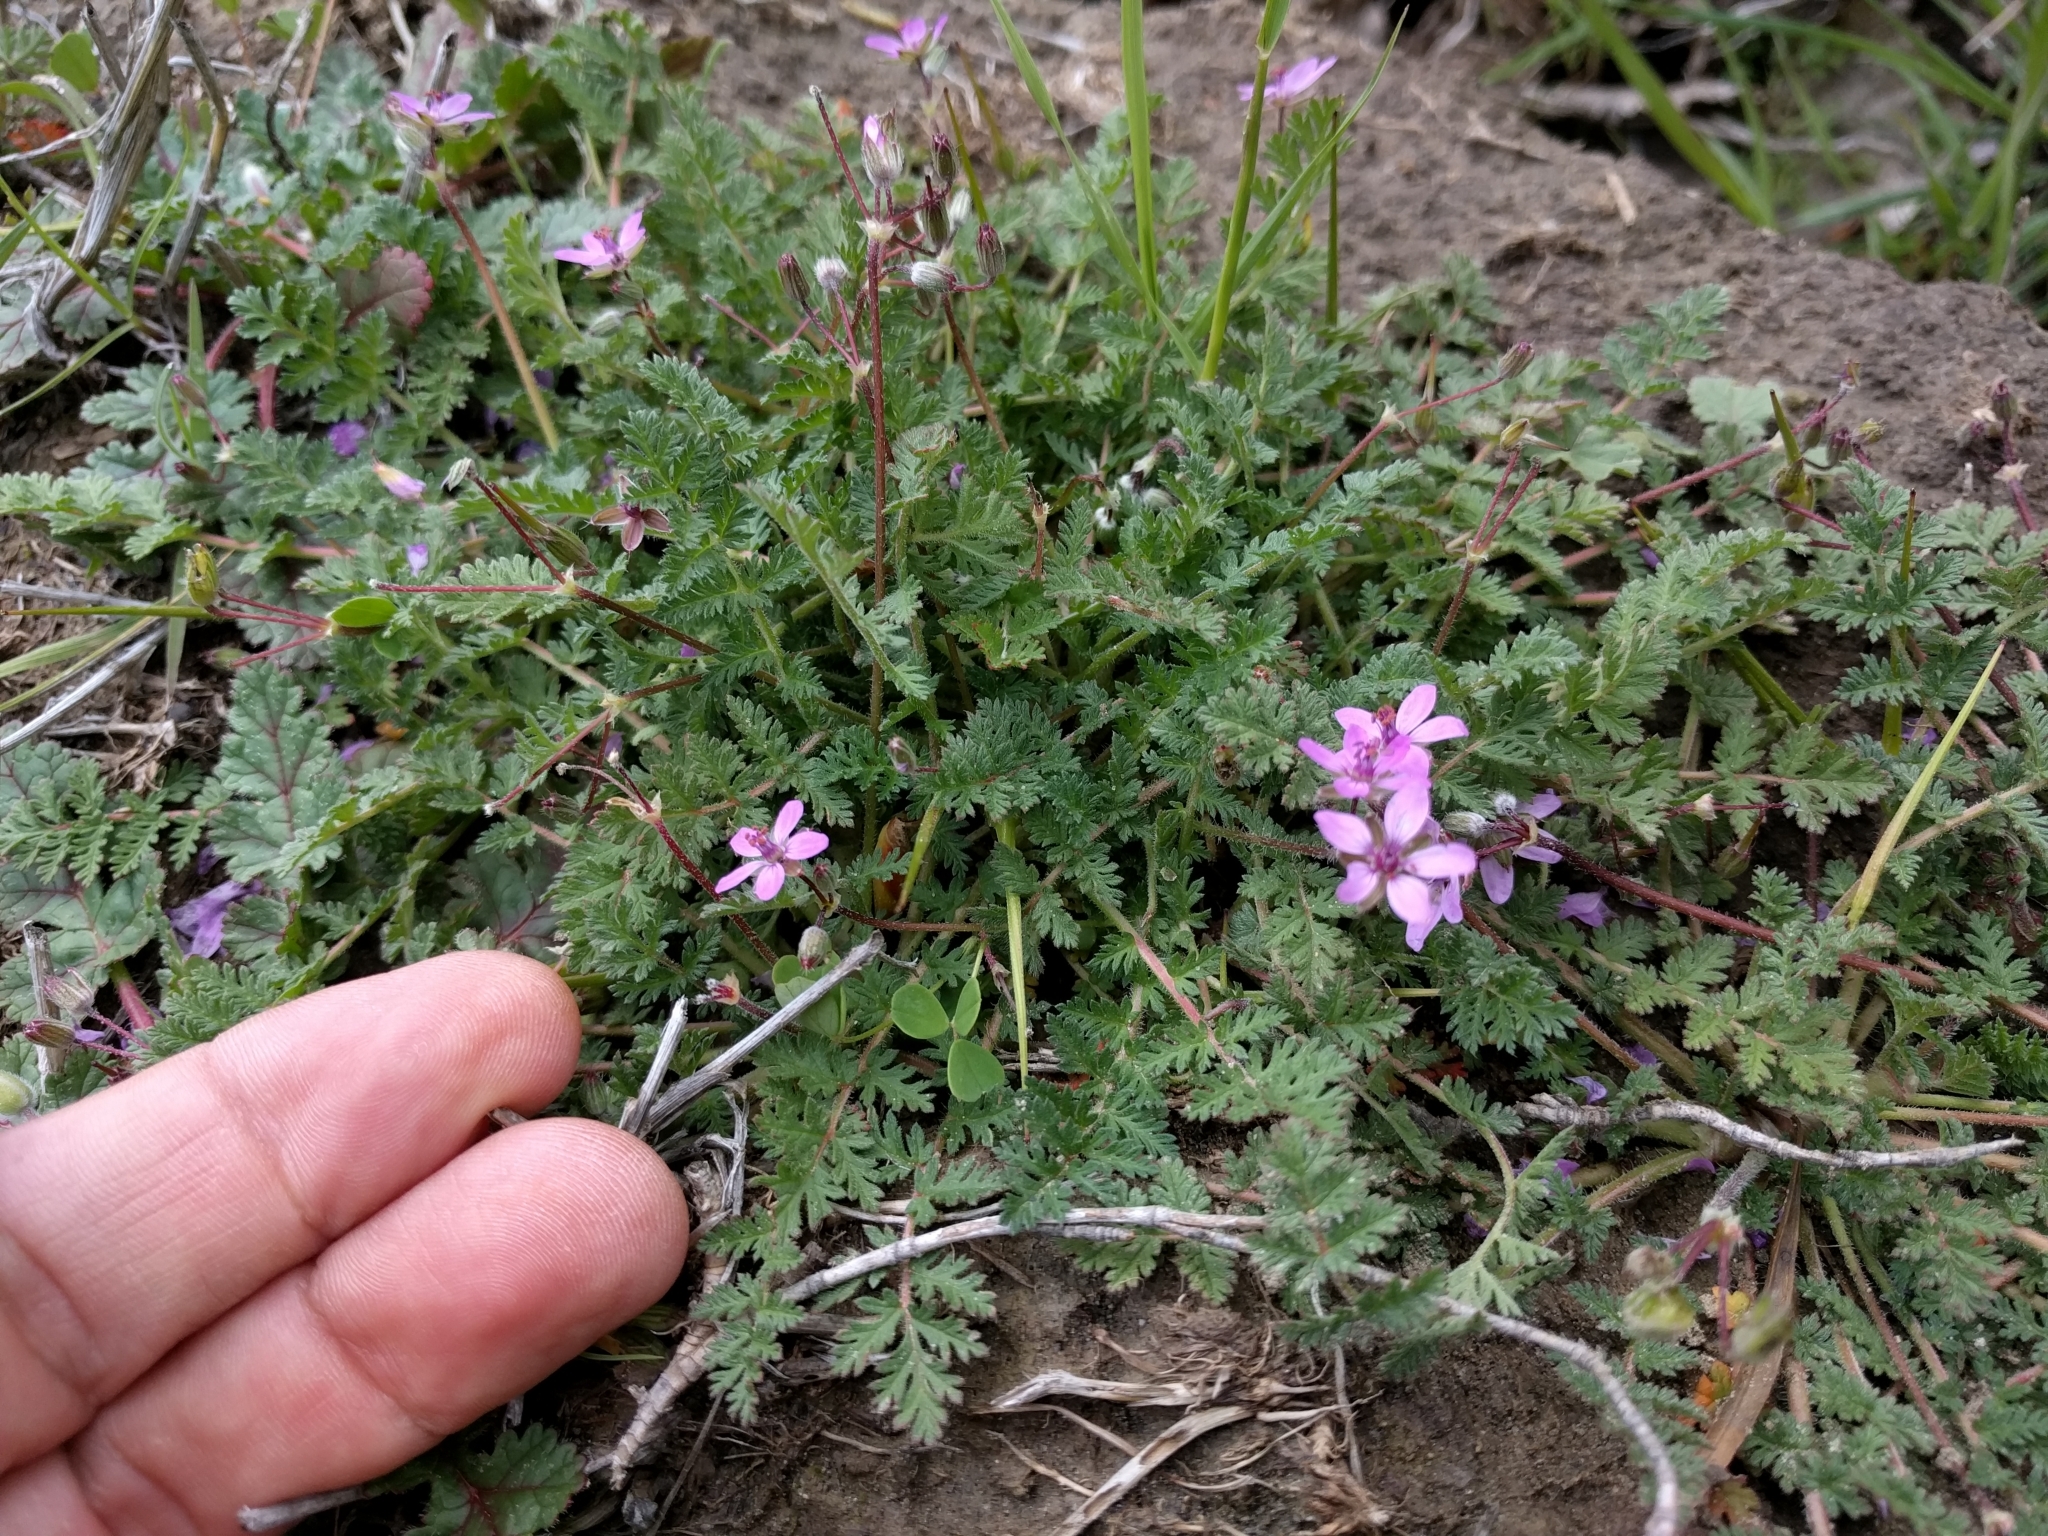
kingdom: Plantae
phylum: Tracheophyta
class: Magnoliopsida
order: Geraniales
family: Geraniaceae
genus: Erodium
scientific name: Erodium cicutarium
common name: Common stork's-bill
